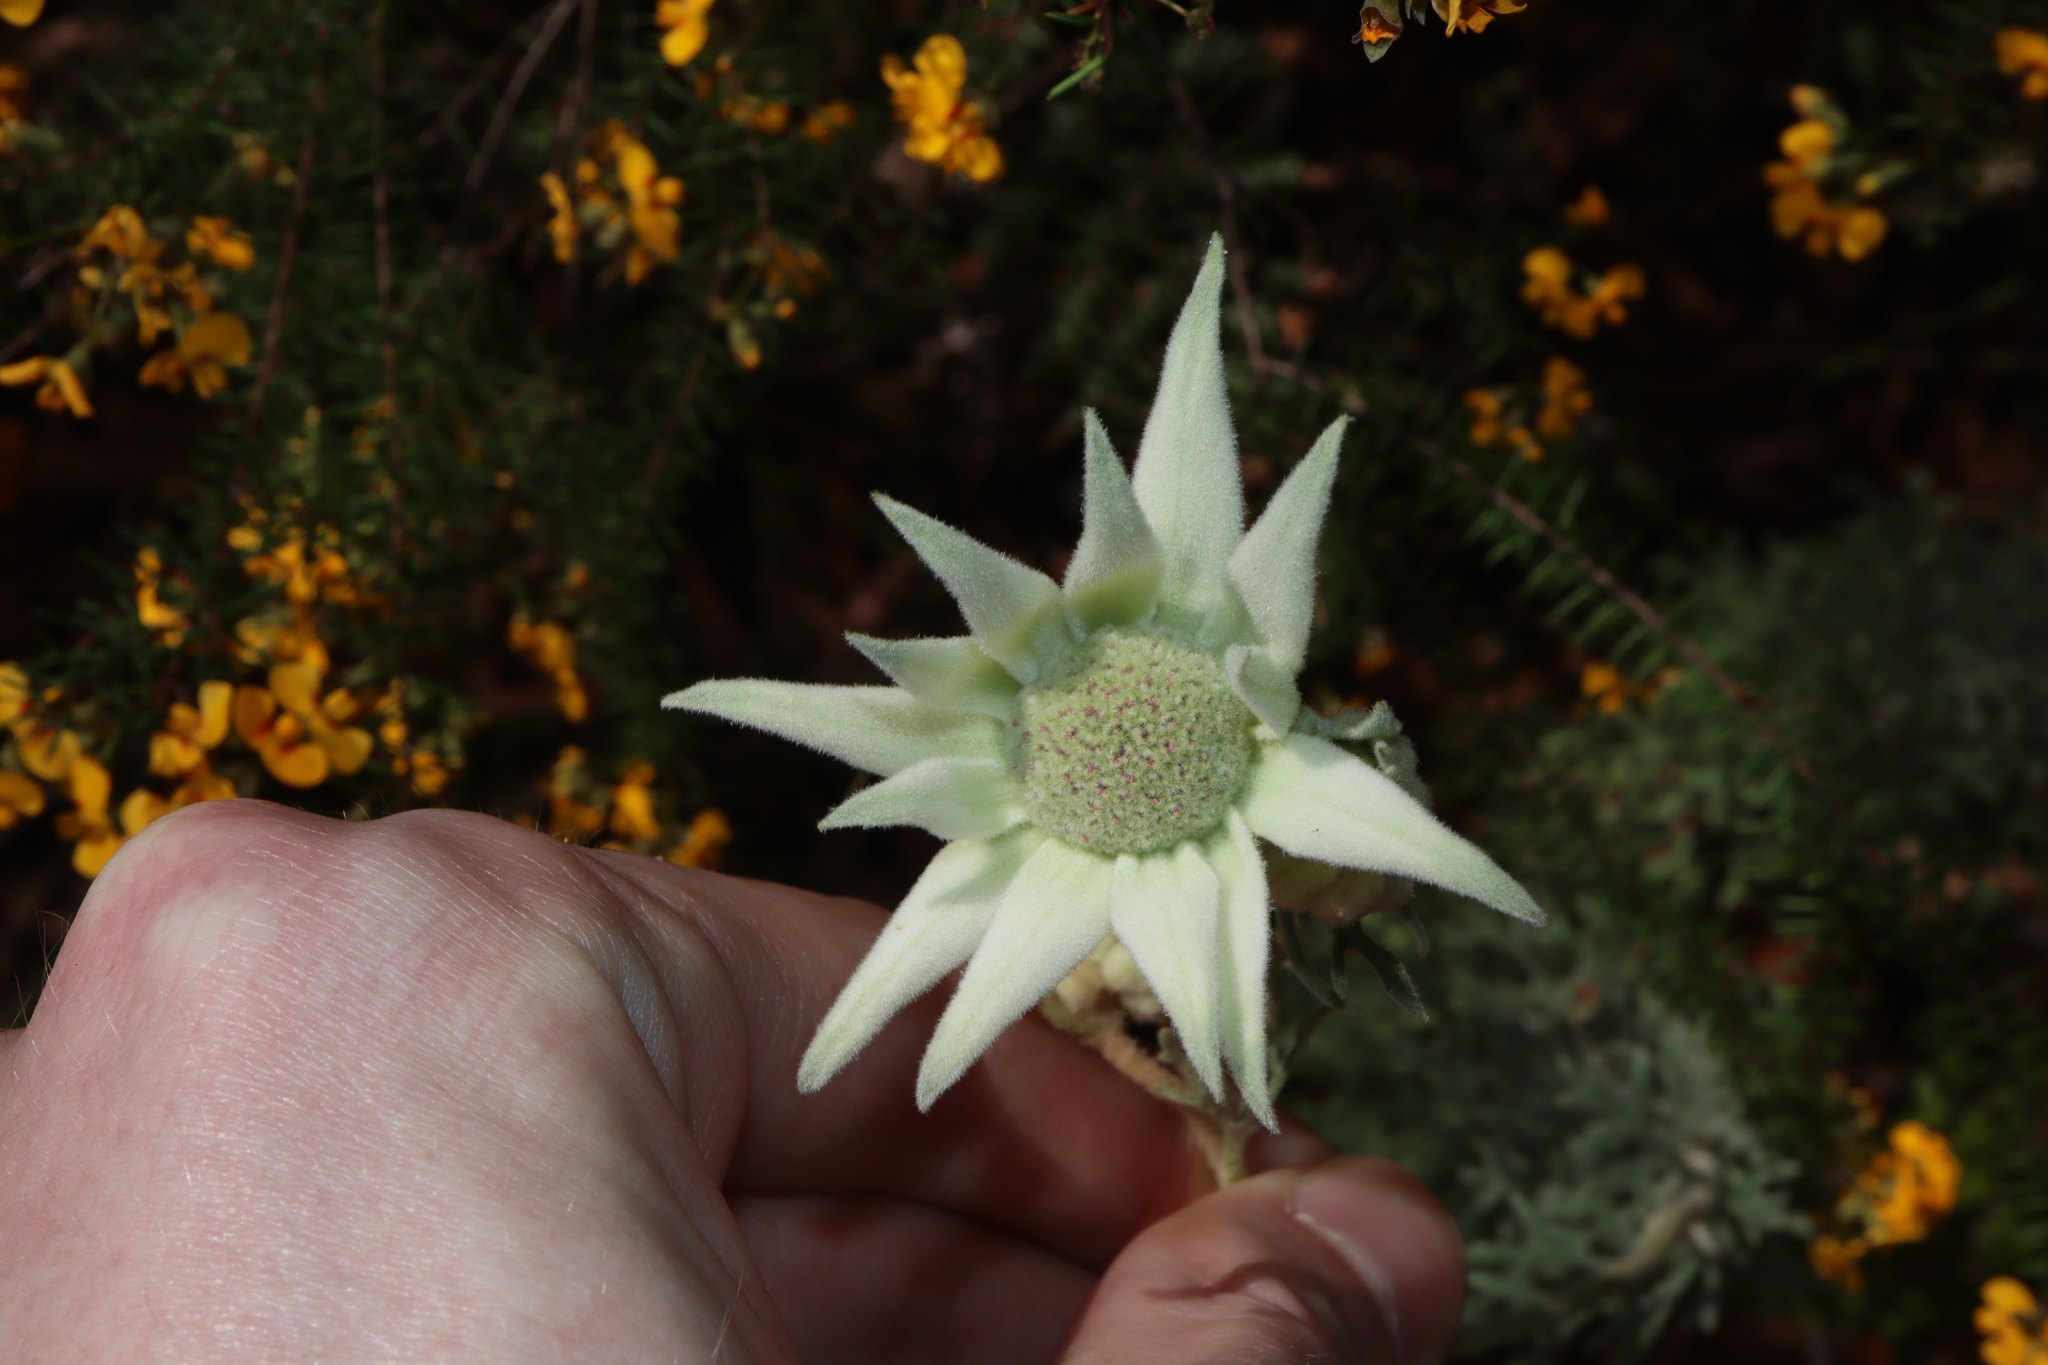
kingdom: Plantae
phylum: Tracheophyta
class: Magnoliopsida
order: Apiales
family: Apiaceae
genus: Actinotus
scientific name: Actinotus helianthi
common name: Flannel-flower
